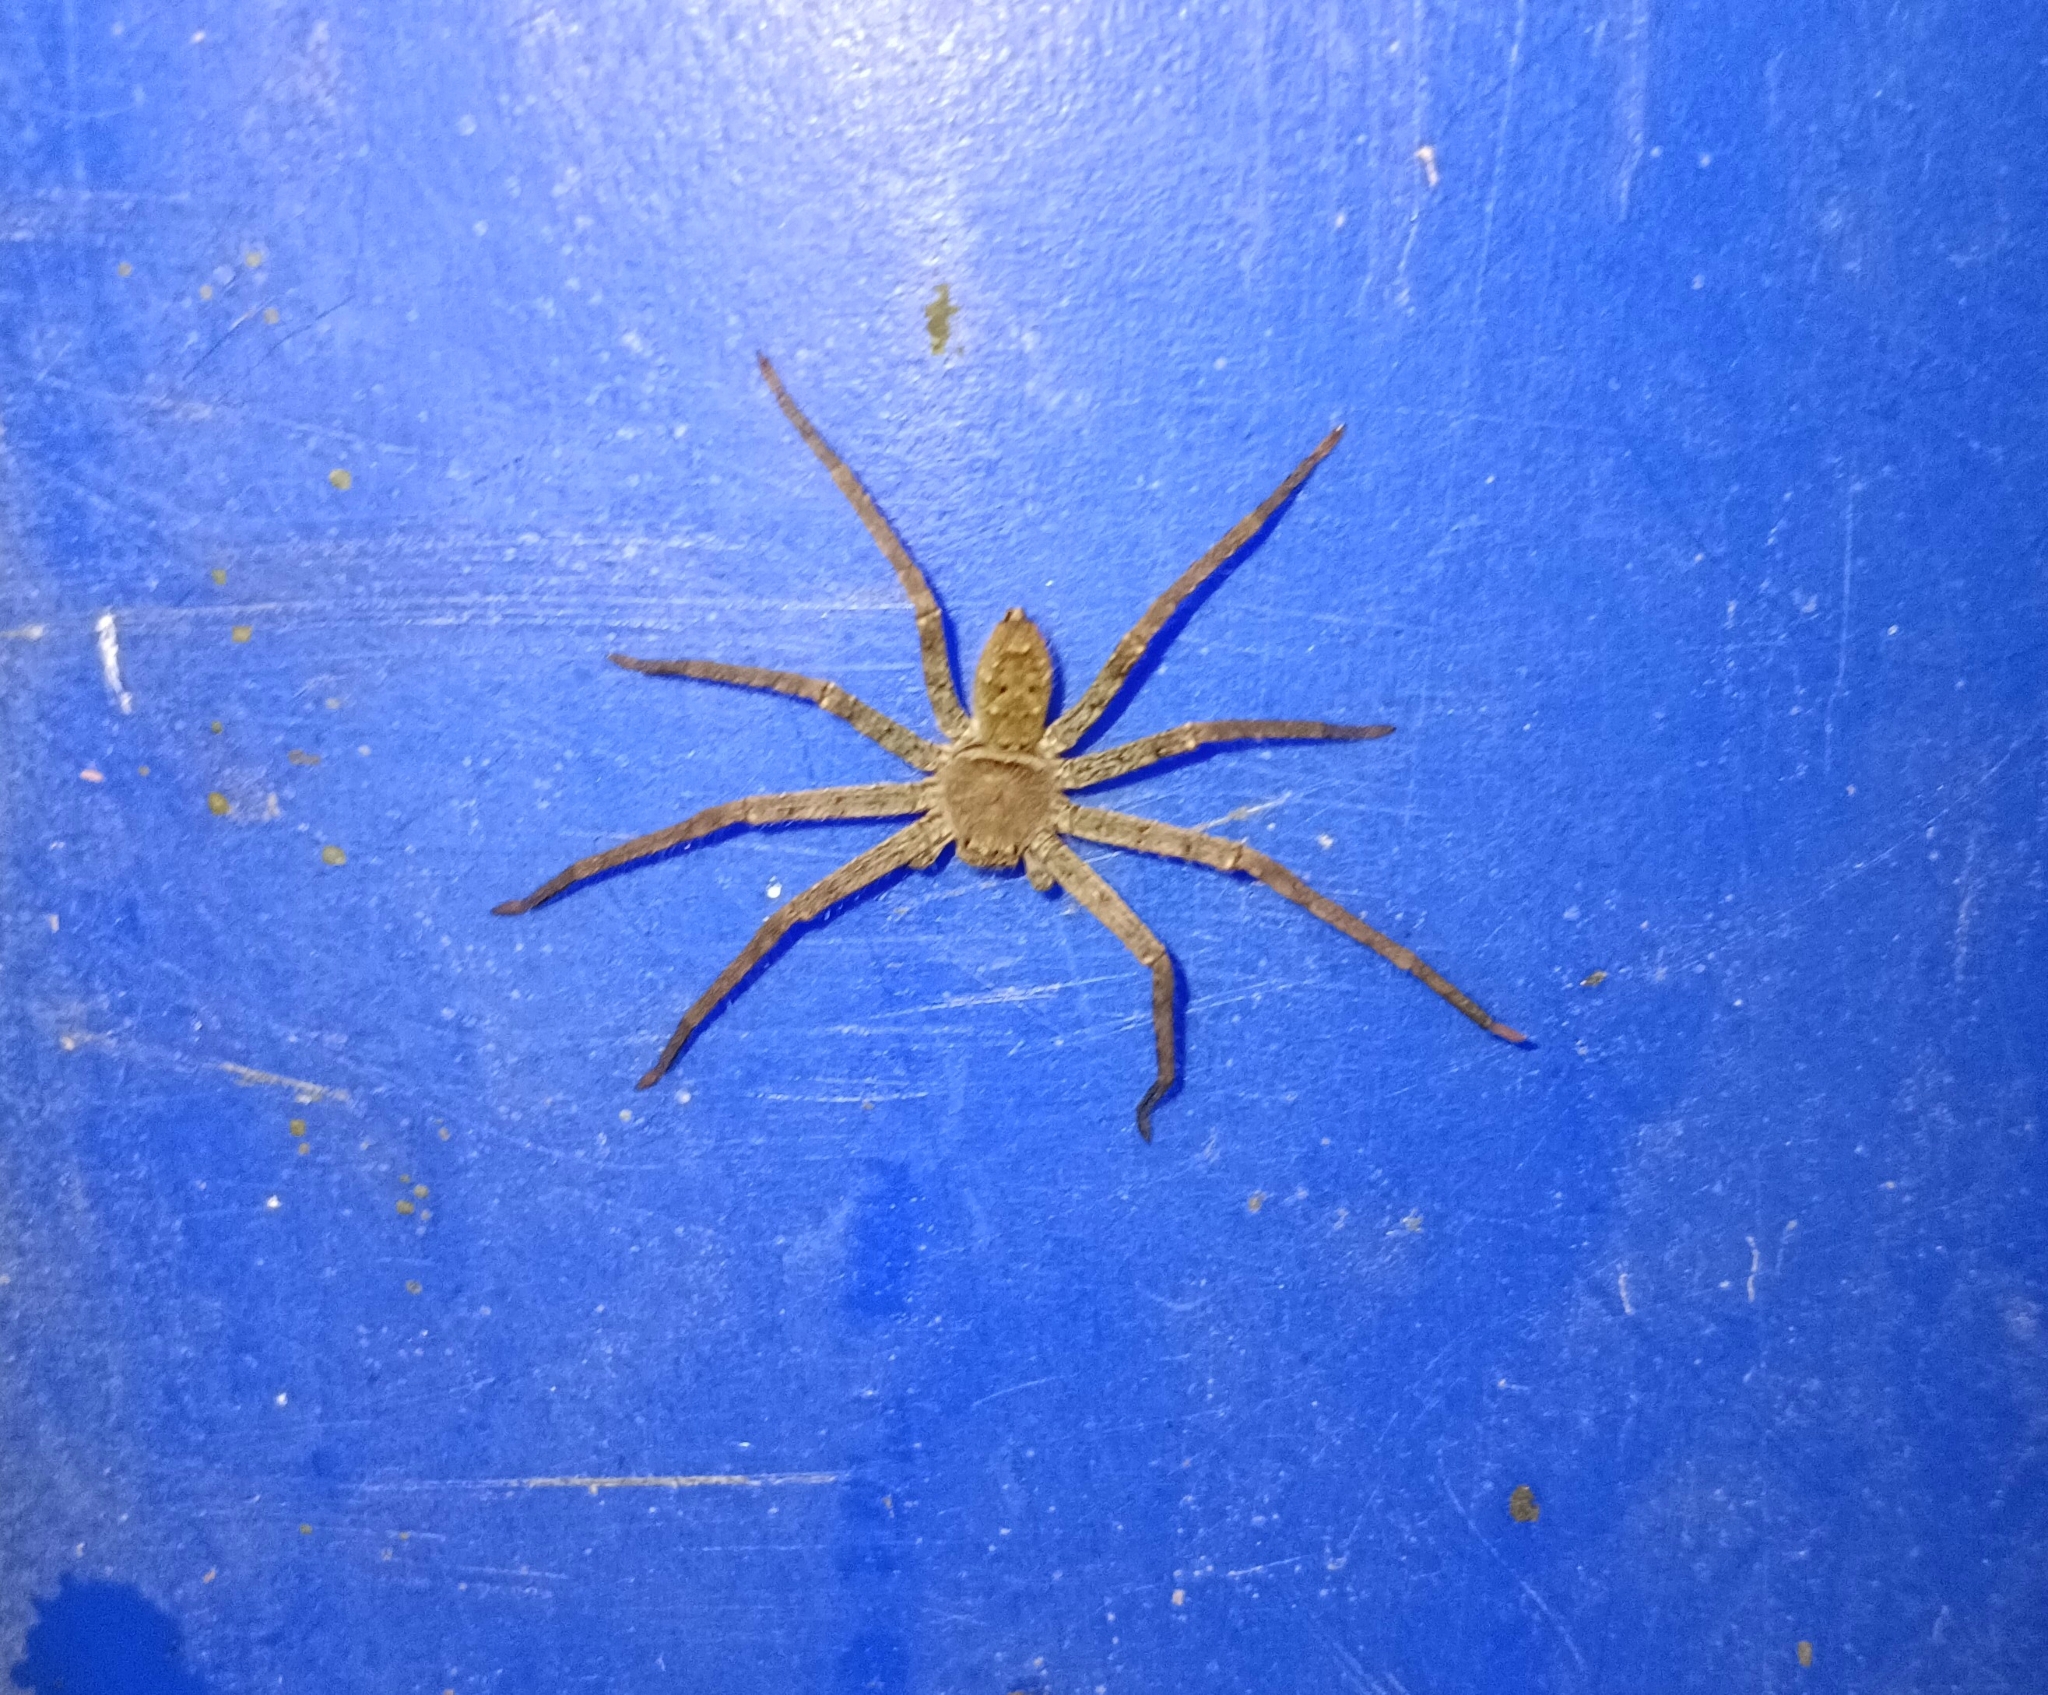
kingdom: Animalia
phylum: Arthropoda
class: Arachnida
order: Araneae
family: Sparassidae
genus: Heteropoda
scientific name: Heteropoda venatoria
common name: Huntsman spider
